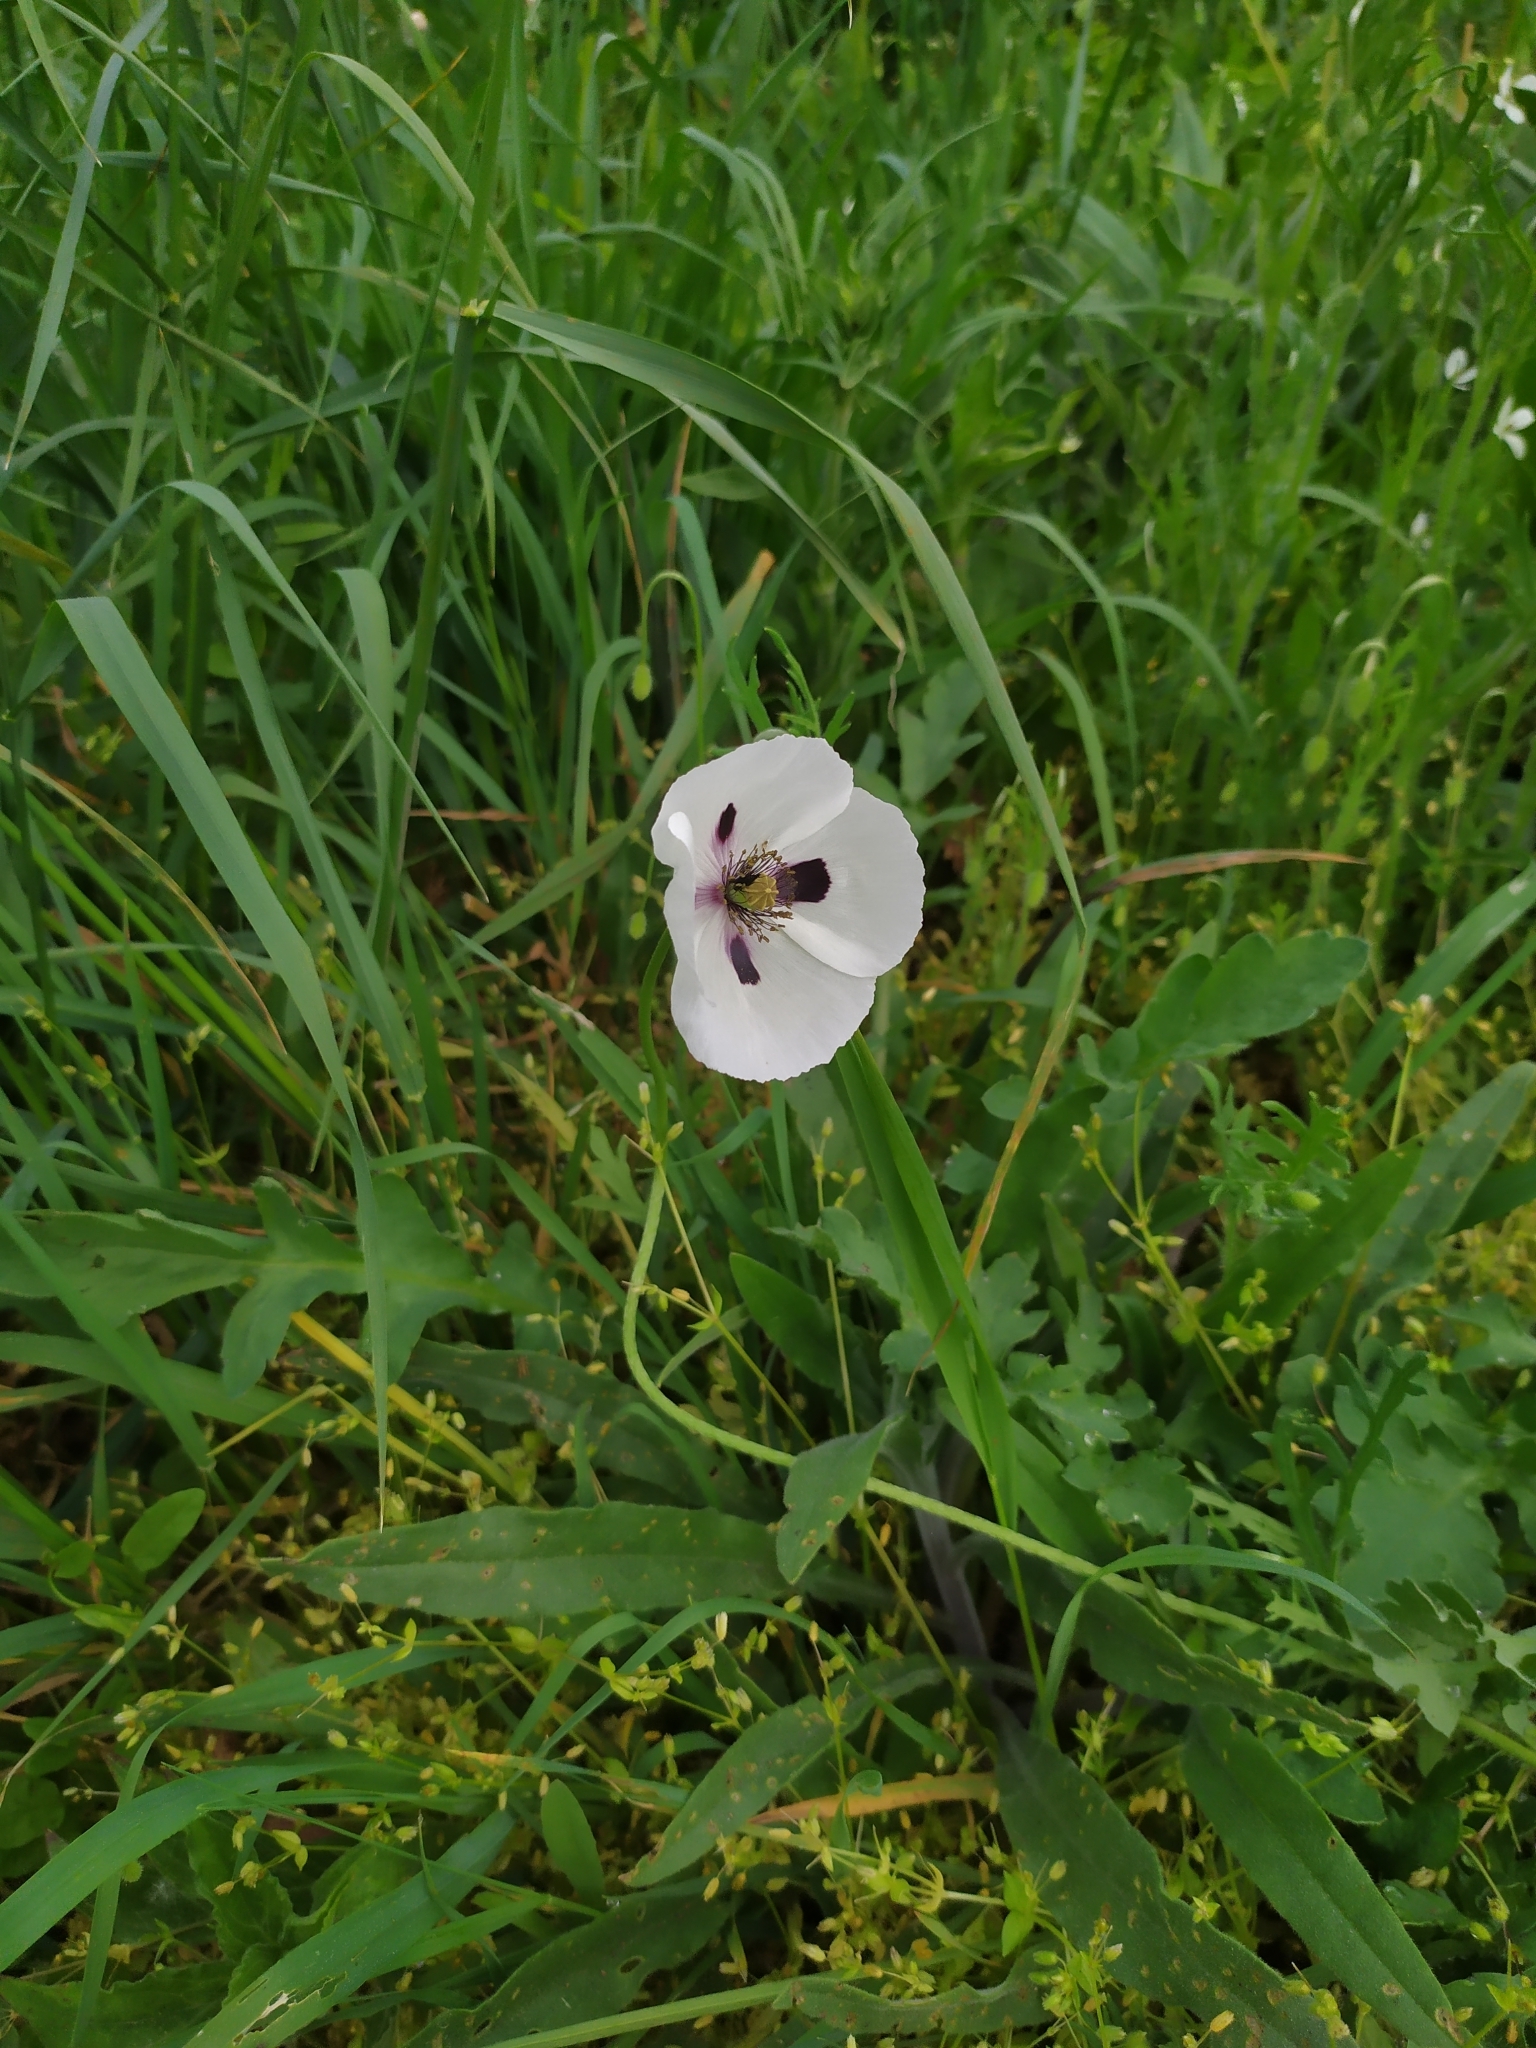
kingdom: Plantae
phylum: Tracheophyta
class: Magnoliopsida
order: Ranunculales
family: Papaveraceae
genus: Papaver
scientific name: Papaver dubium
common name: Long-headed poppy
